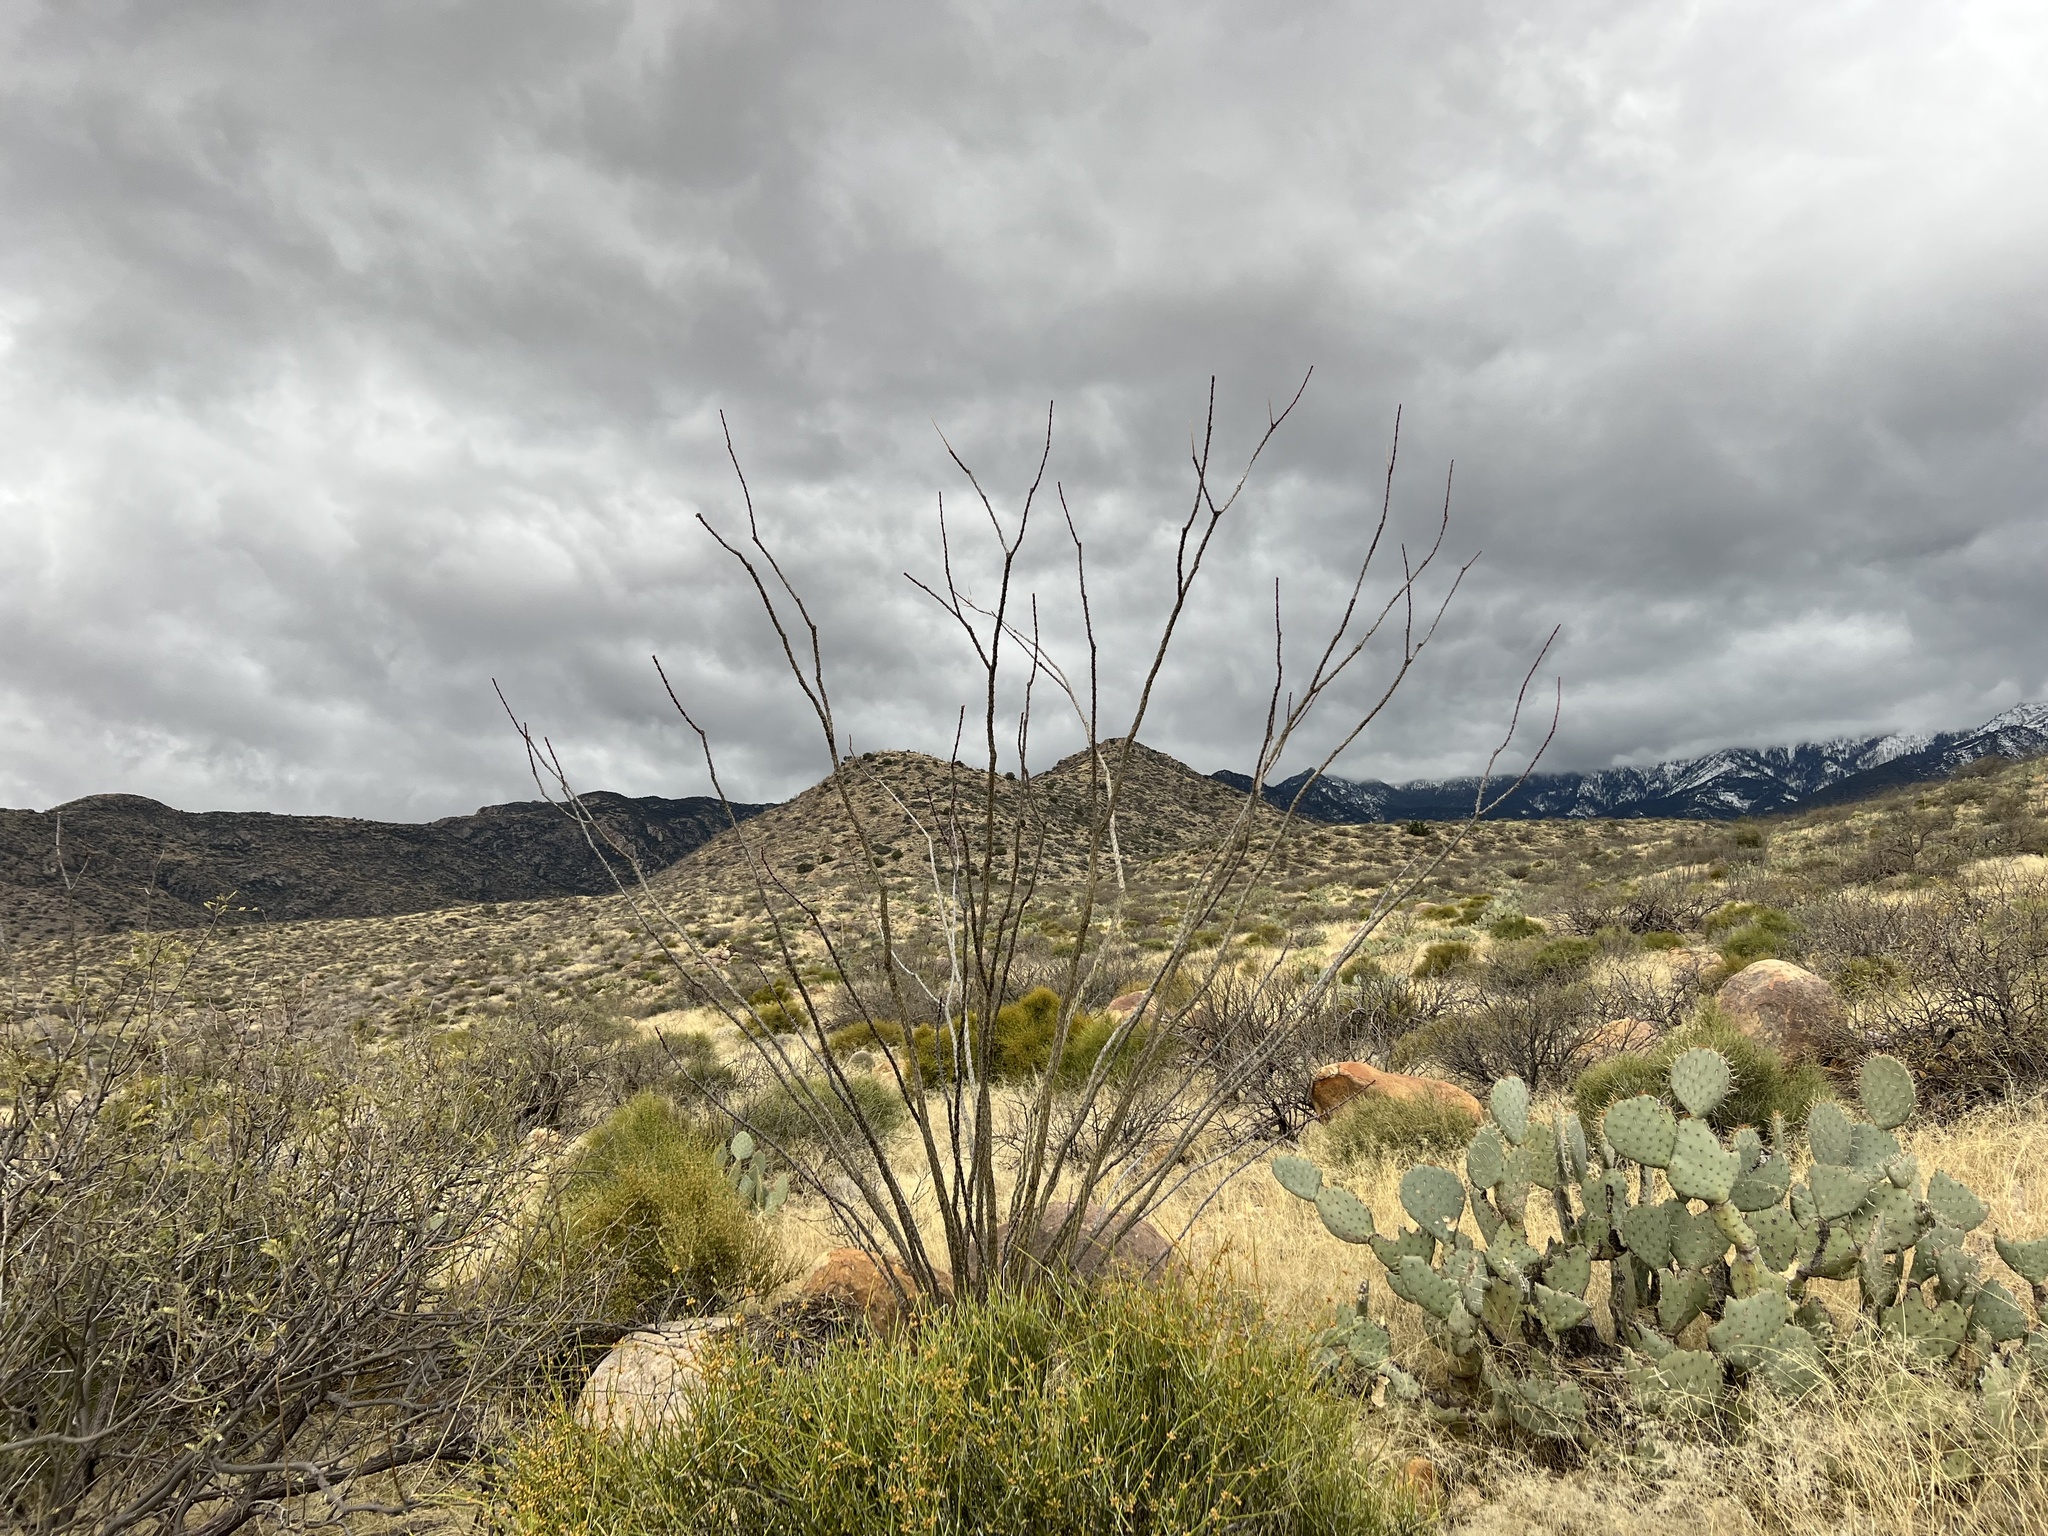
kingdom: Plantae
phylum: Tracheophyta
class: Magnoliopsida
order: Ericales
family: Fouquieriaceae
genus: Fouquieria
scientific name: Fouquieria splendens
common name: Vine-cactus
